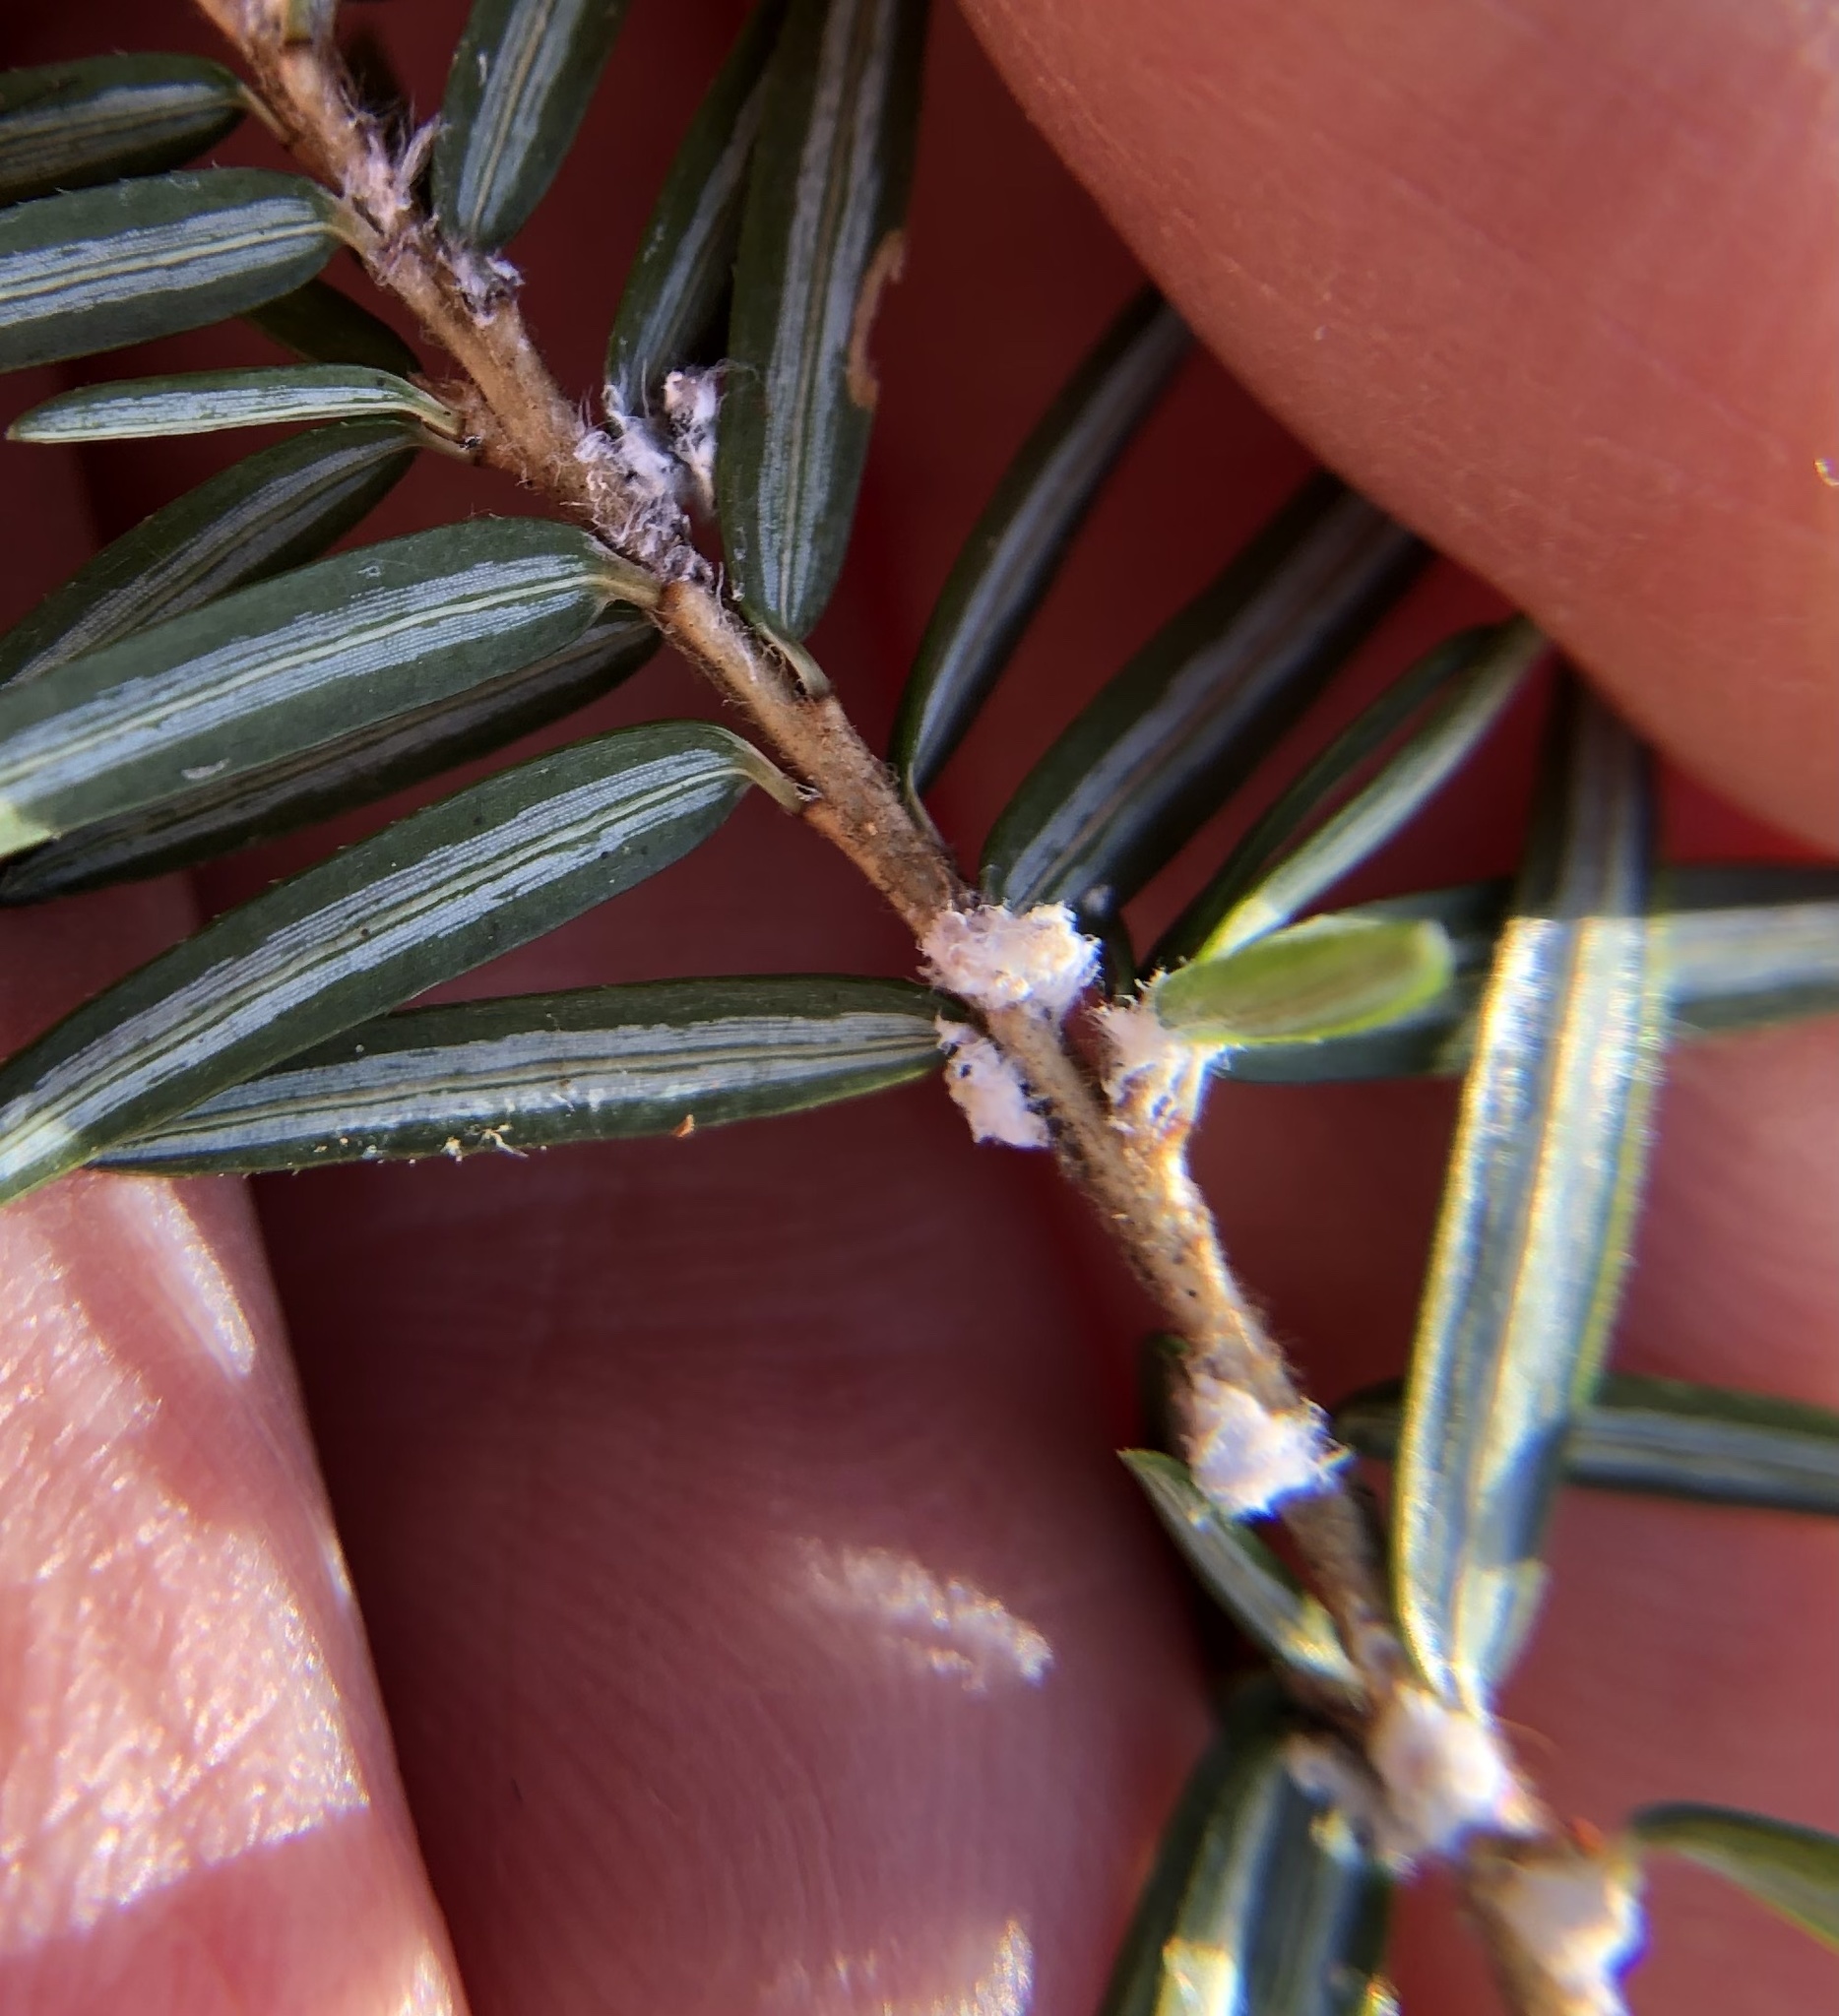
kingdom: Animalia
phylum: Arthropoda
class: Insecta
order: Hemiptera
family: Adelgidae
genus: Adelges
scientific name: Adelges tsugae
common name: Hemlock woolly adelgid
